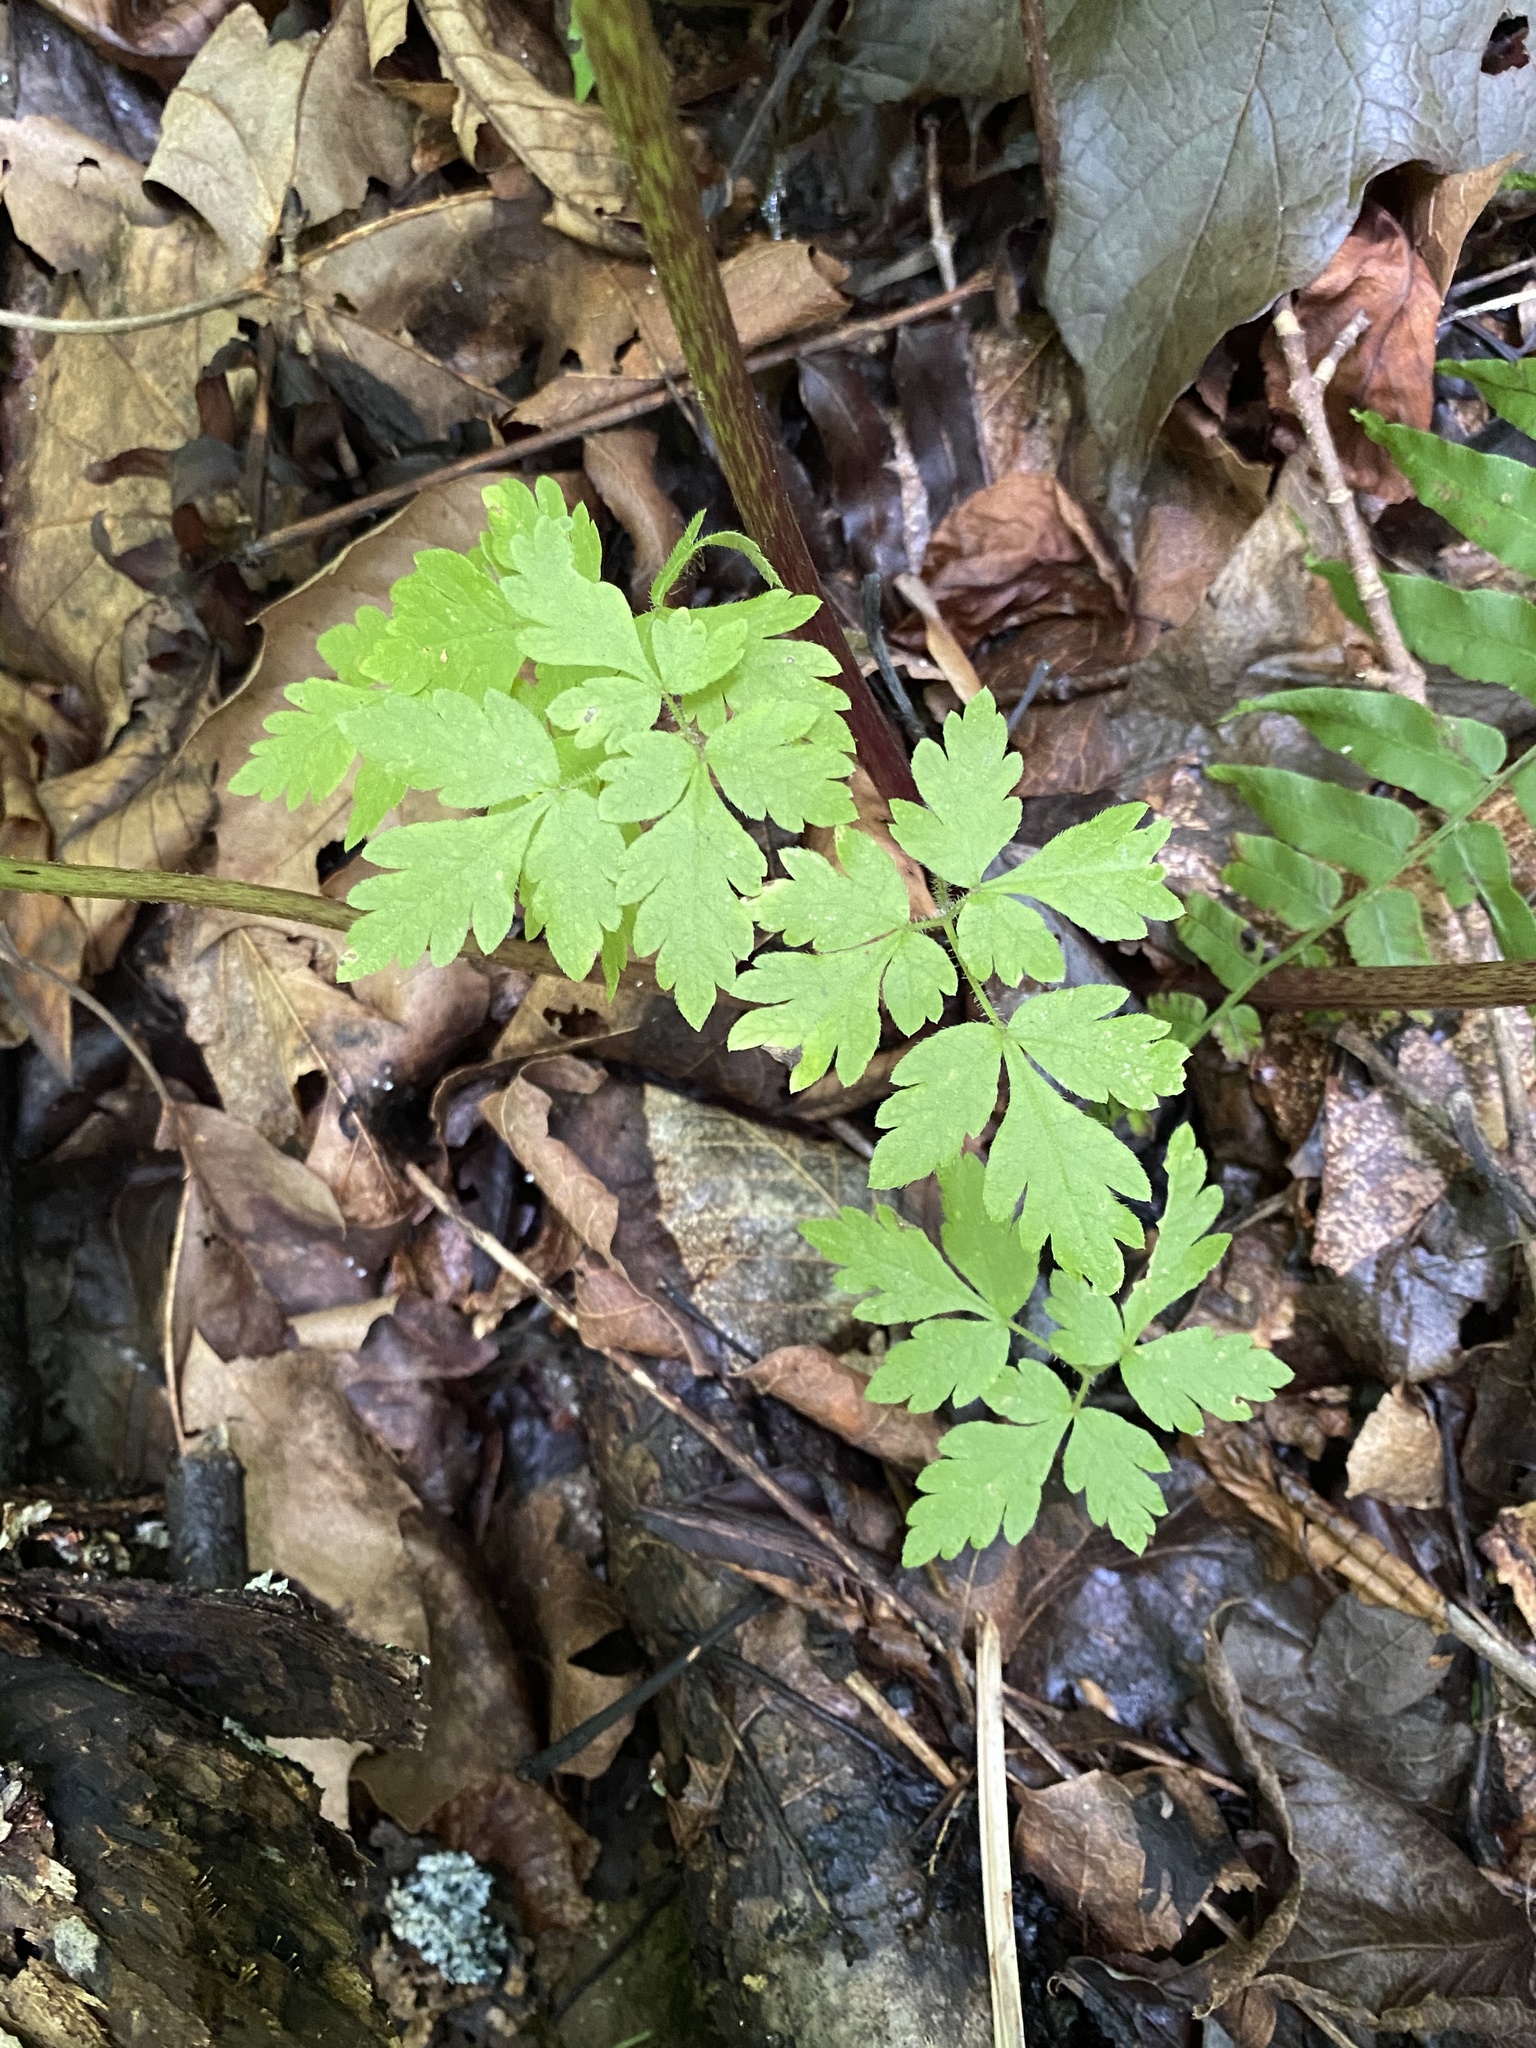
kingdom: Plantae
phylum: Tracheophyta
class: Magnoliopsida
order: Apiales
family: Apiaceae
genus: Osmorhiza
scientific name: Osmorhiza claytonii
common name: Hairy sweet cicely
